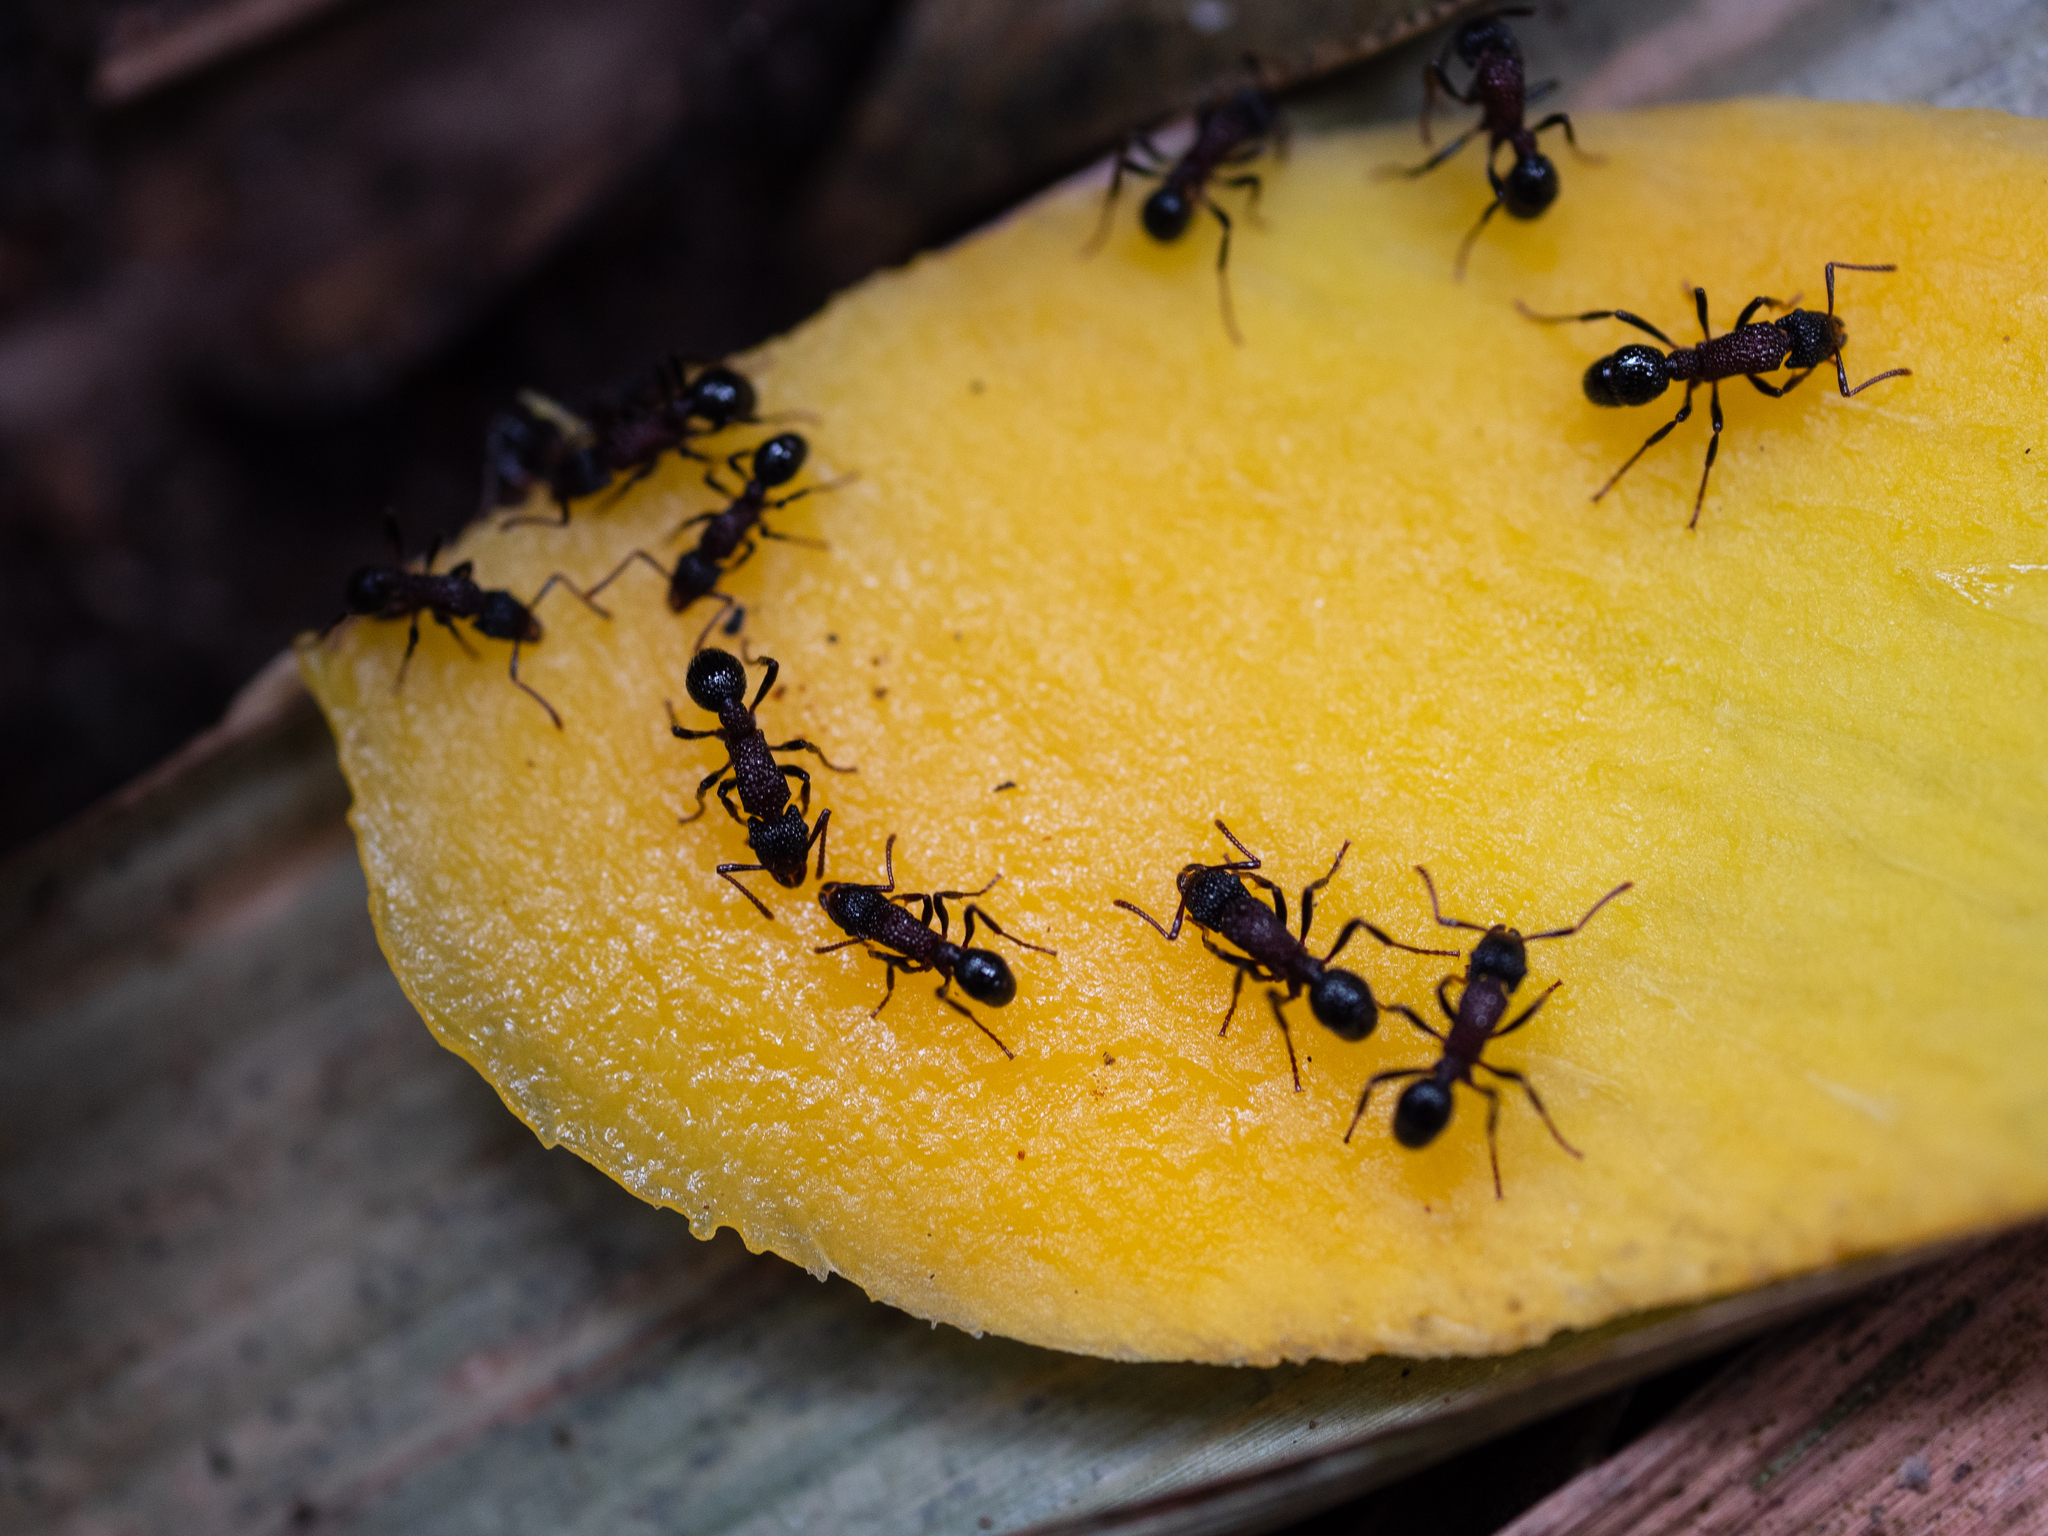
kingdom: Animalia
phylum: Arthropoda
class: Insecta
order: Hymenoptera
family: Formicidae
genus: Stictoponera
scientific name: Stictoponera bicolor
